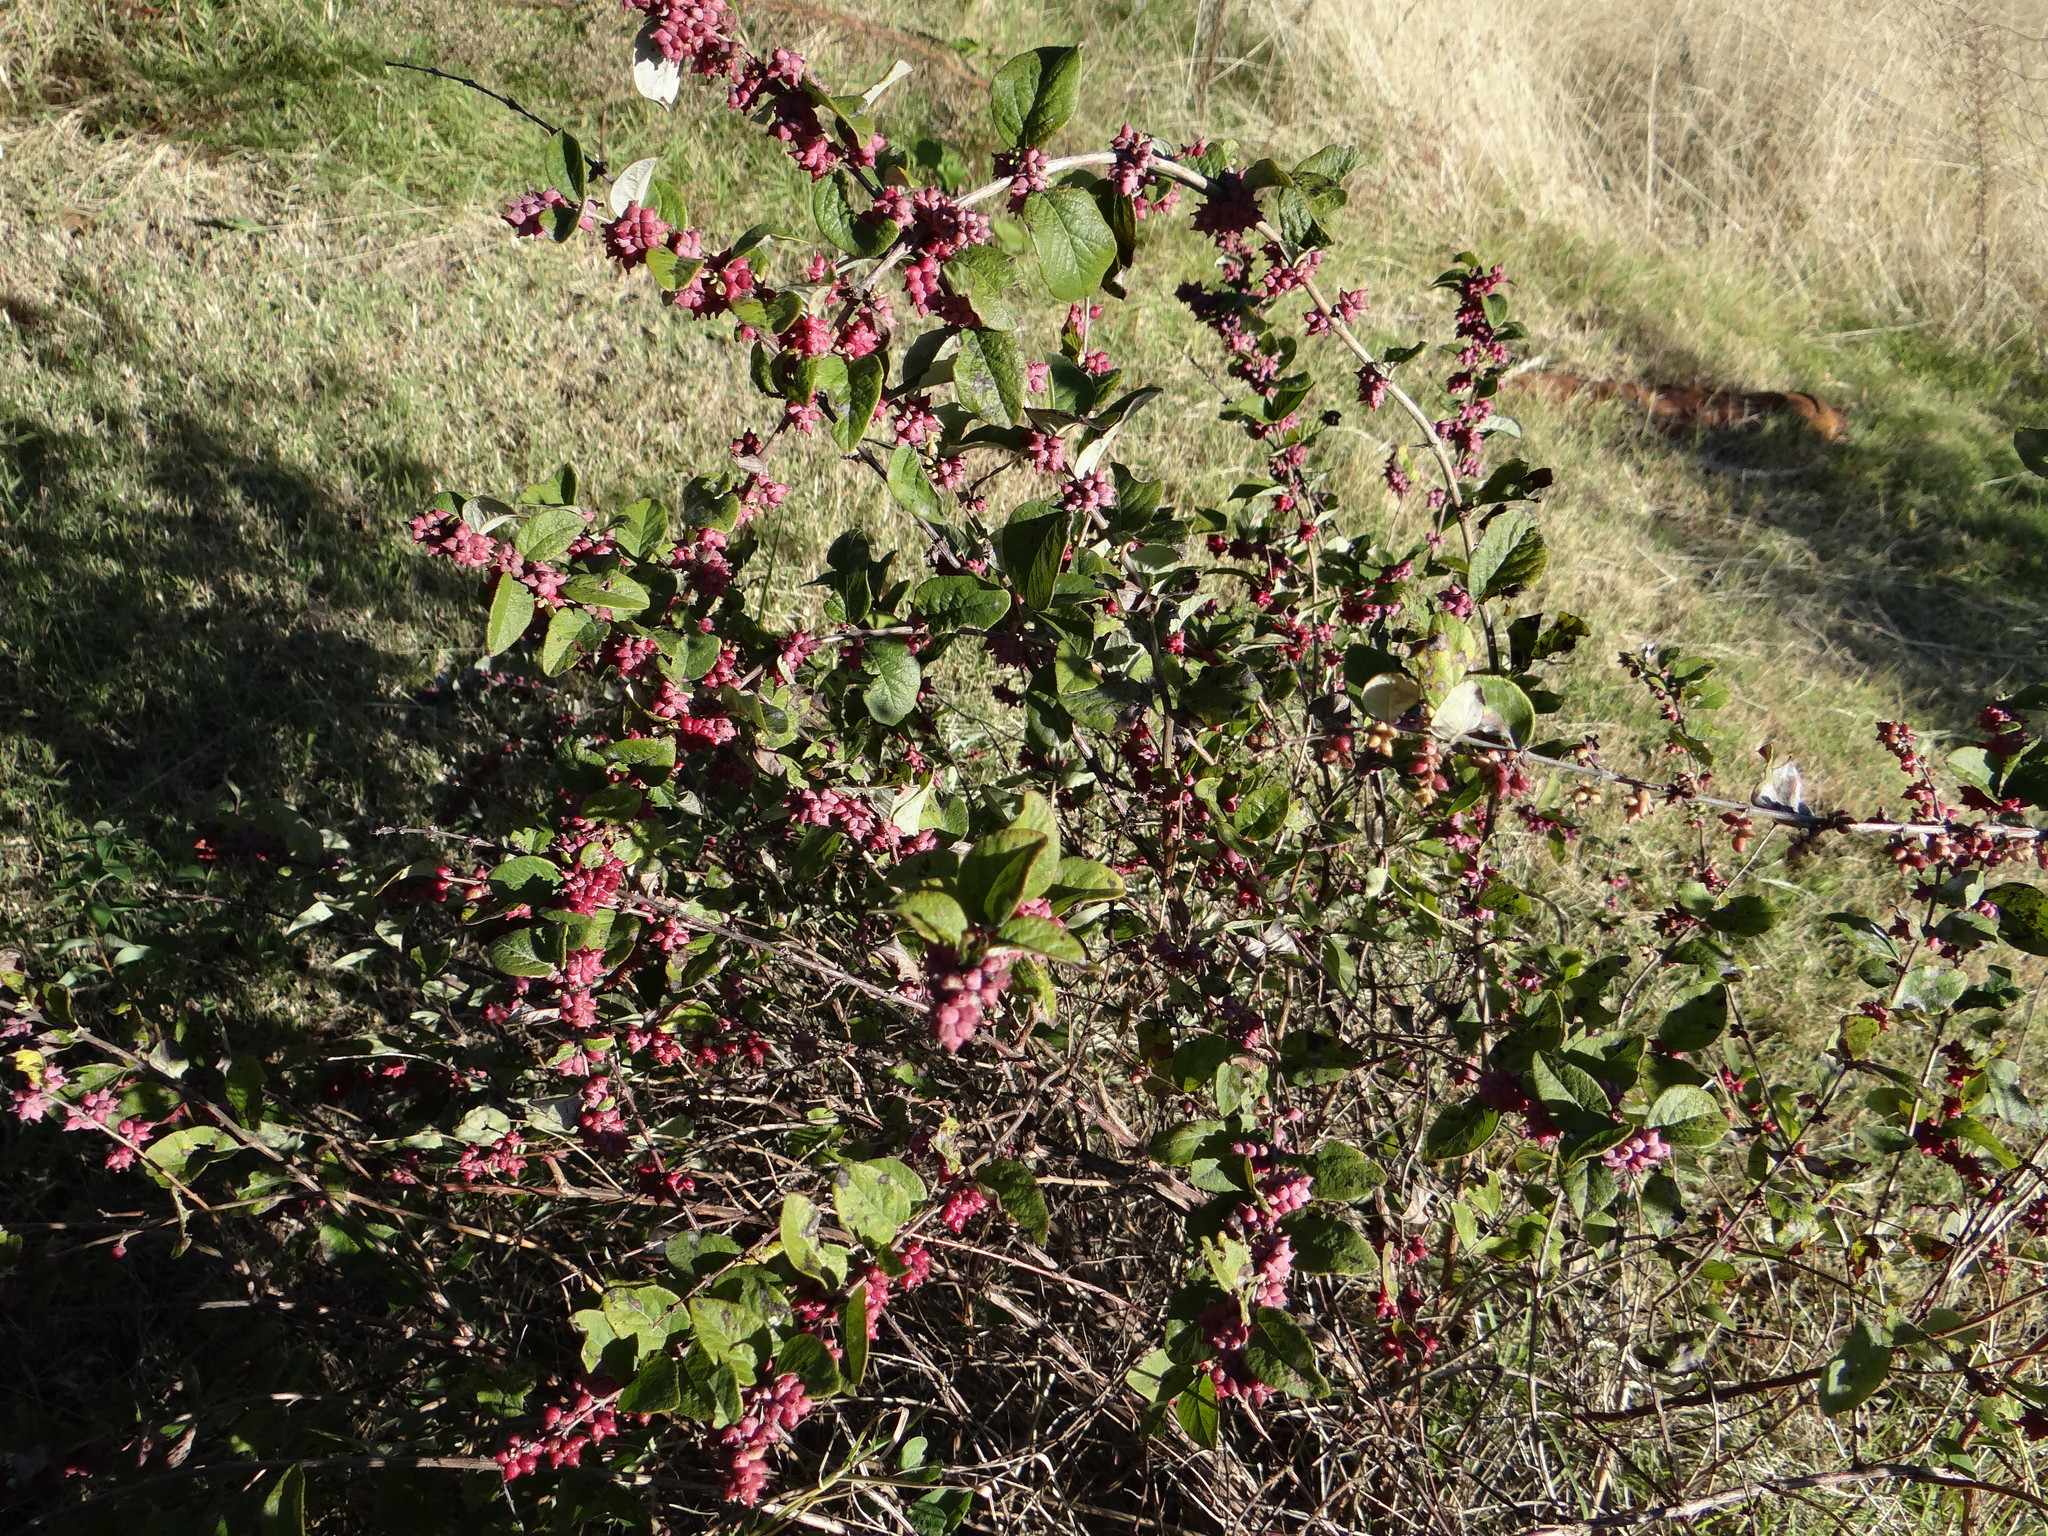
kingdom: Plantae
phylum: Tracheophyta
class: Magnoliopsida
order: Dipsacales
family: Caprifoliaceae
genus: Symphoricarpos
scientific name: Symphoricarpos orbiculatus
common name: Coralberry
